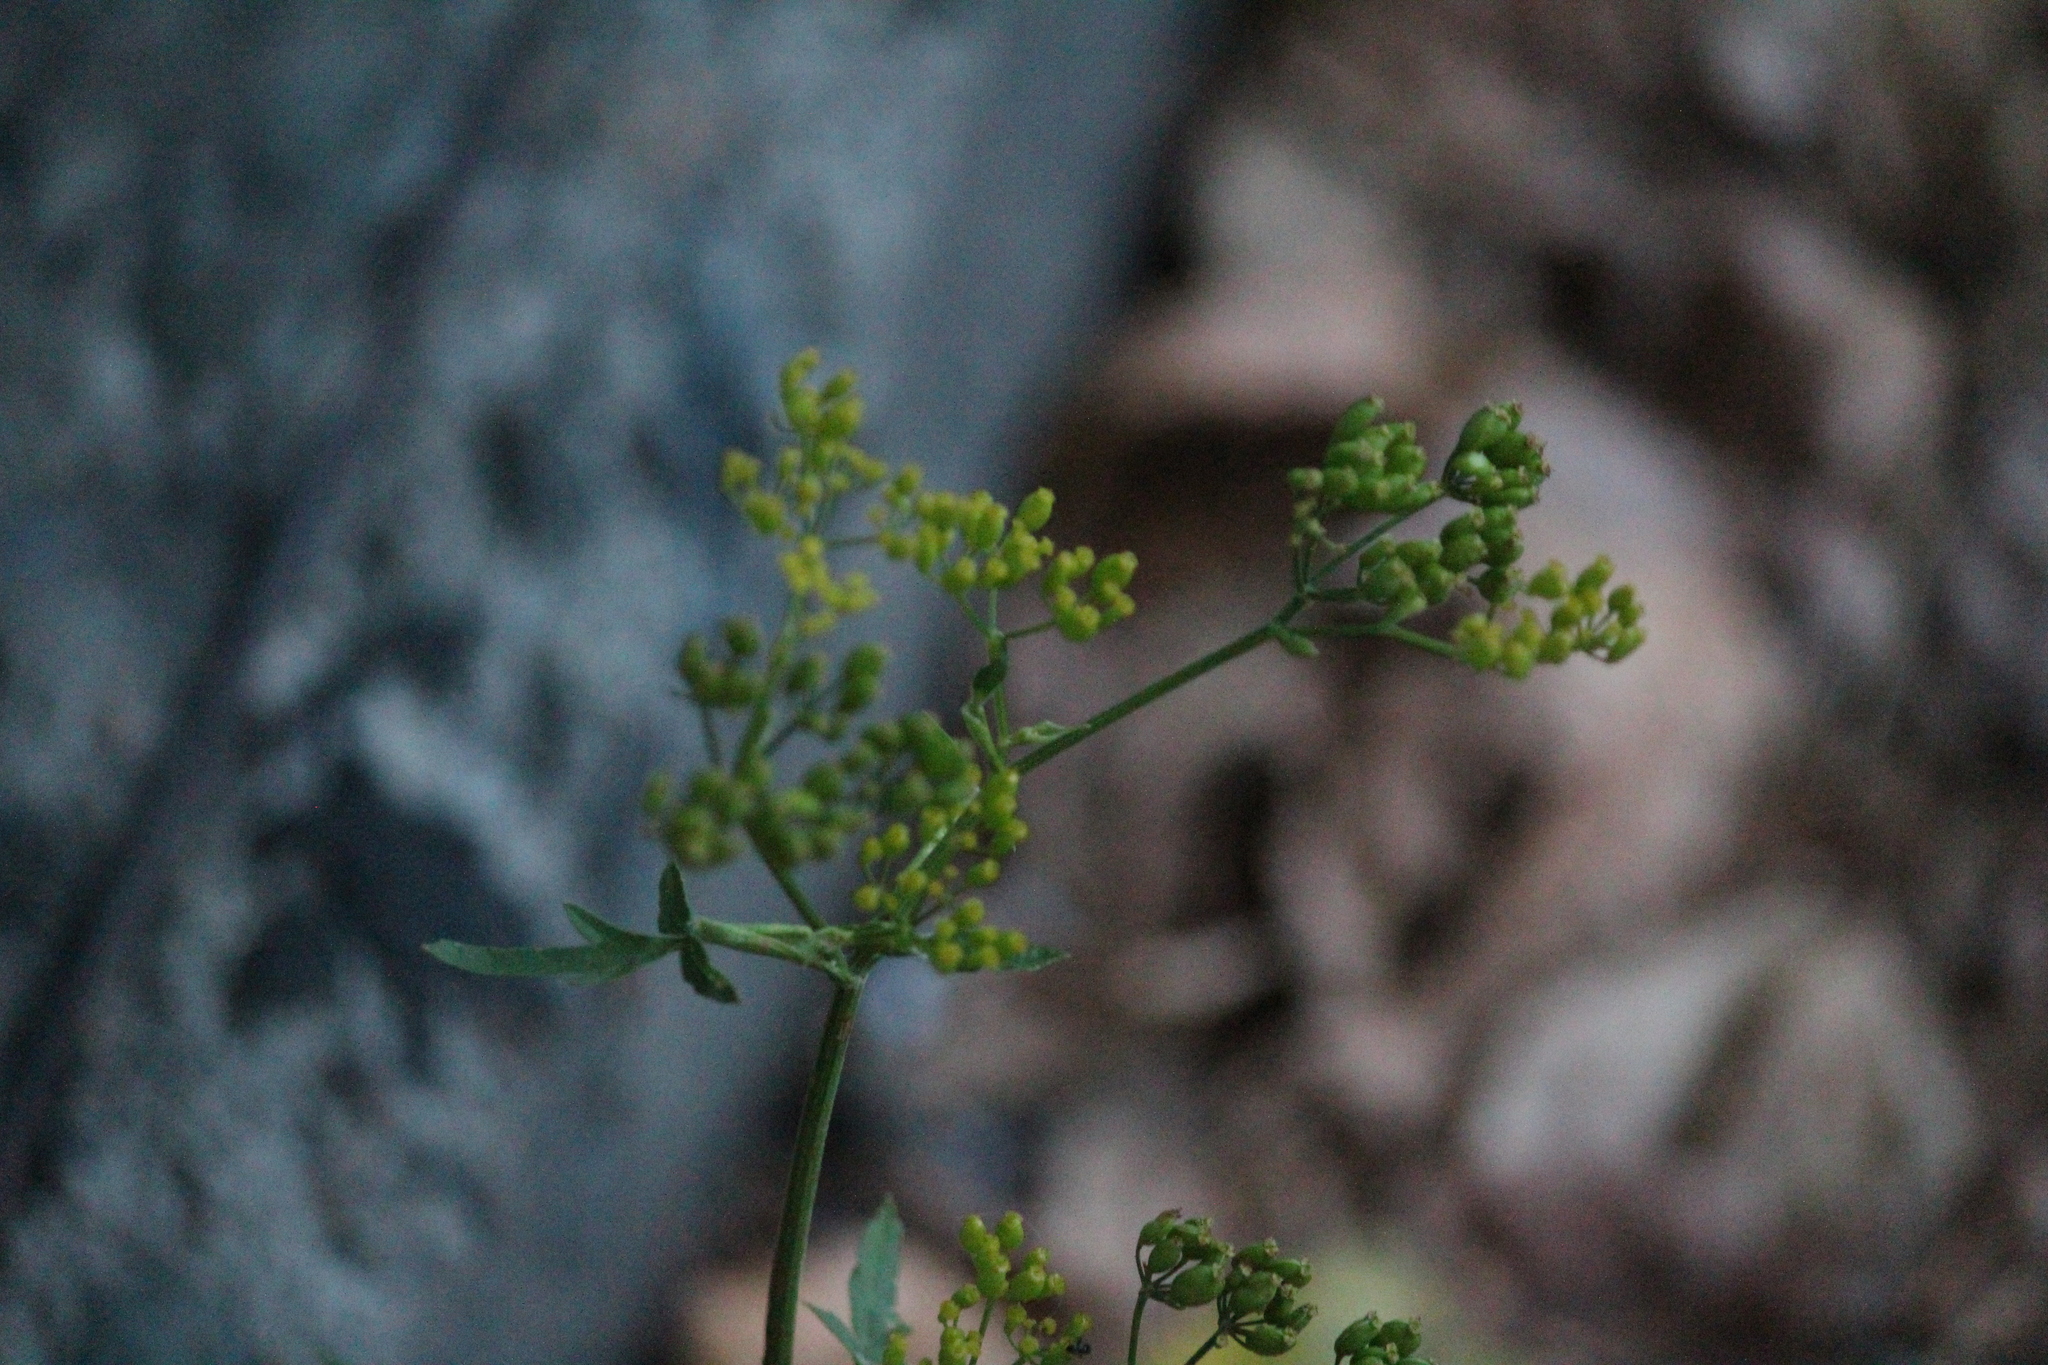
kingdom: Plantae
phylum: Tracheophyta
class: Magnoliopsida
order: Apiales
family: Apiaceae
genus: Pastinaca
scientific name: Pastinaca sativa
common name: Wild parsnip
